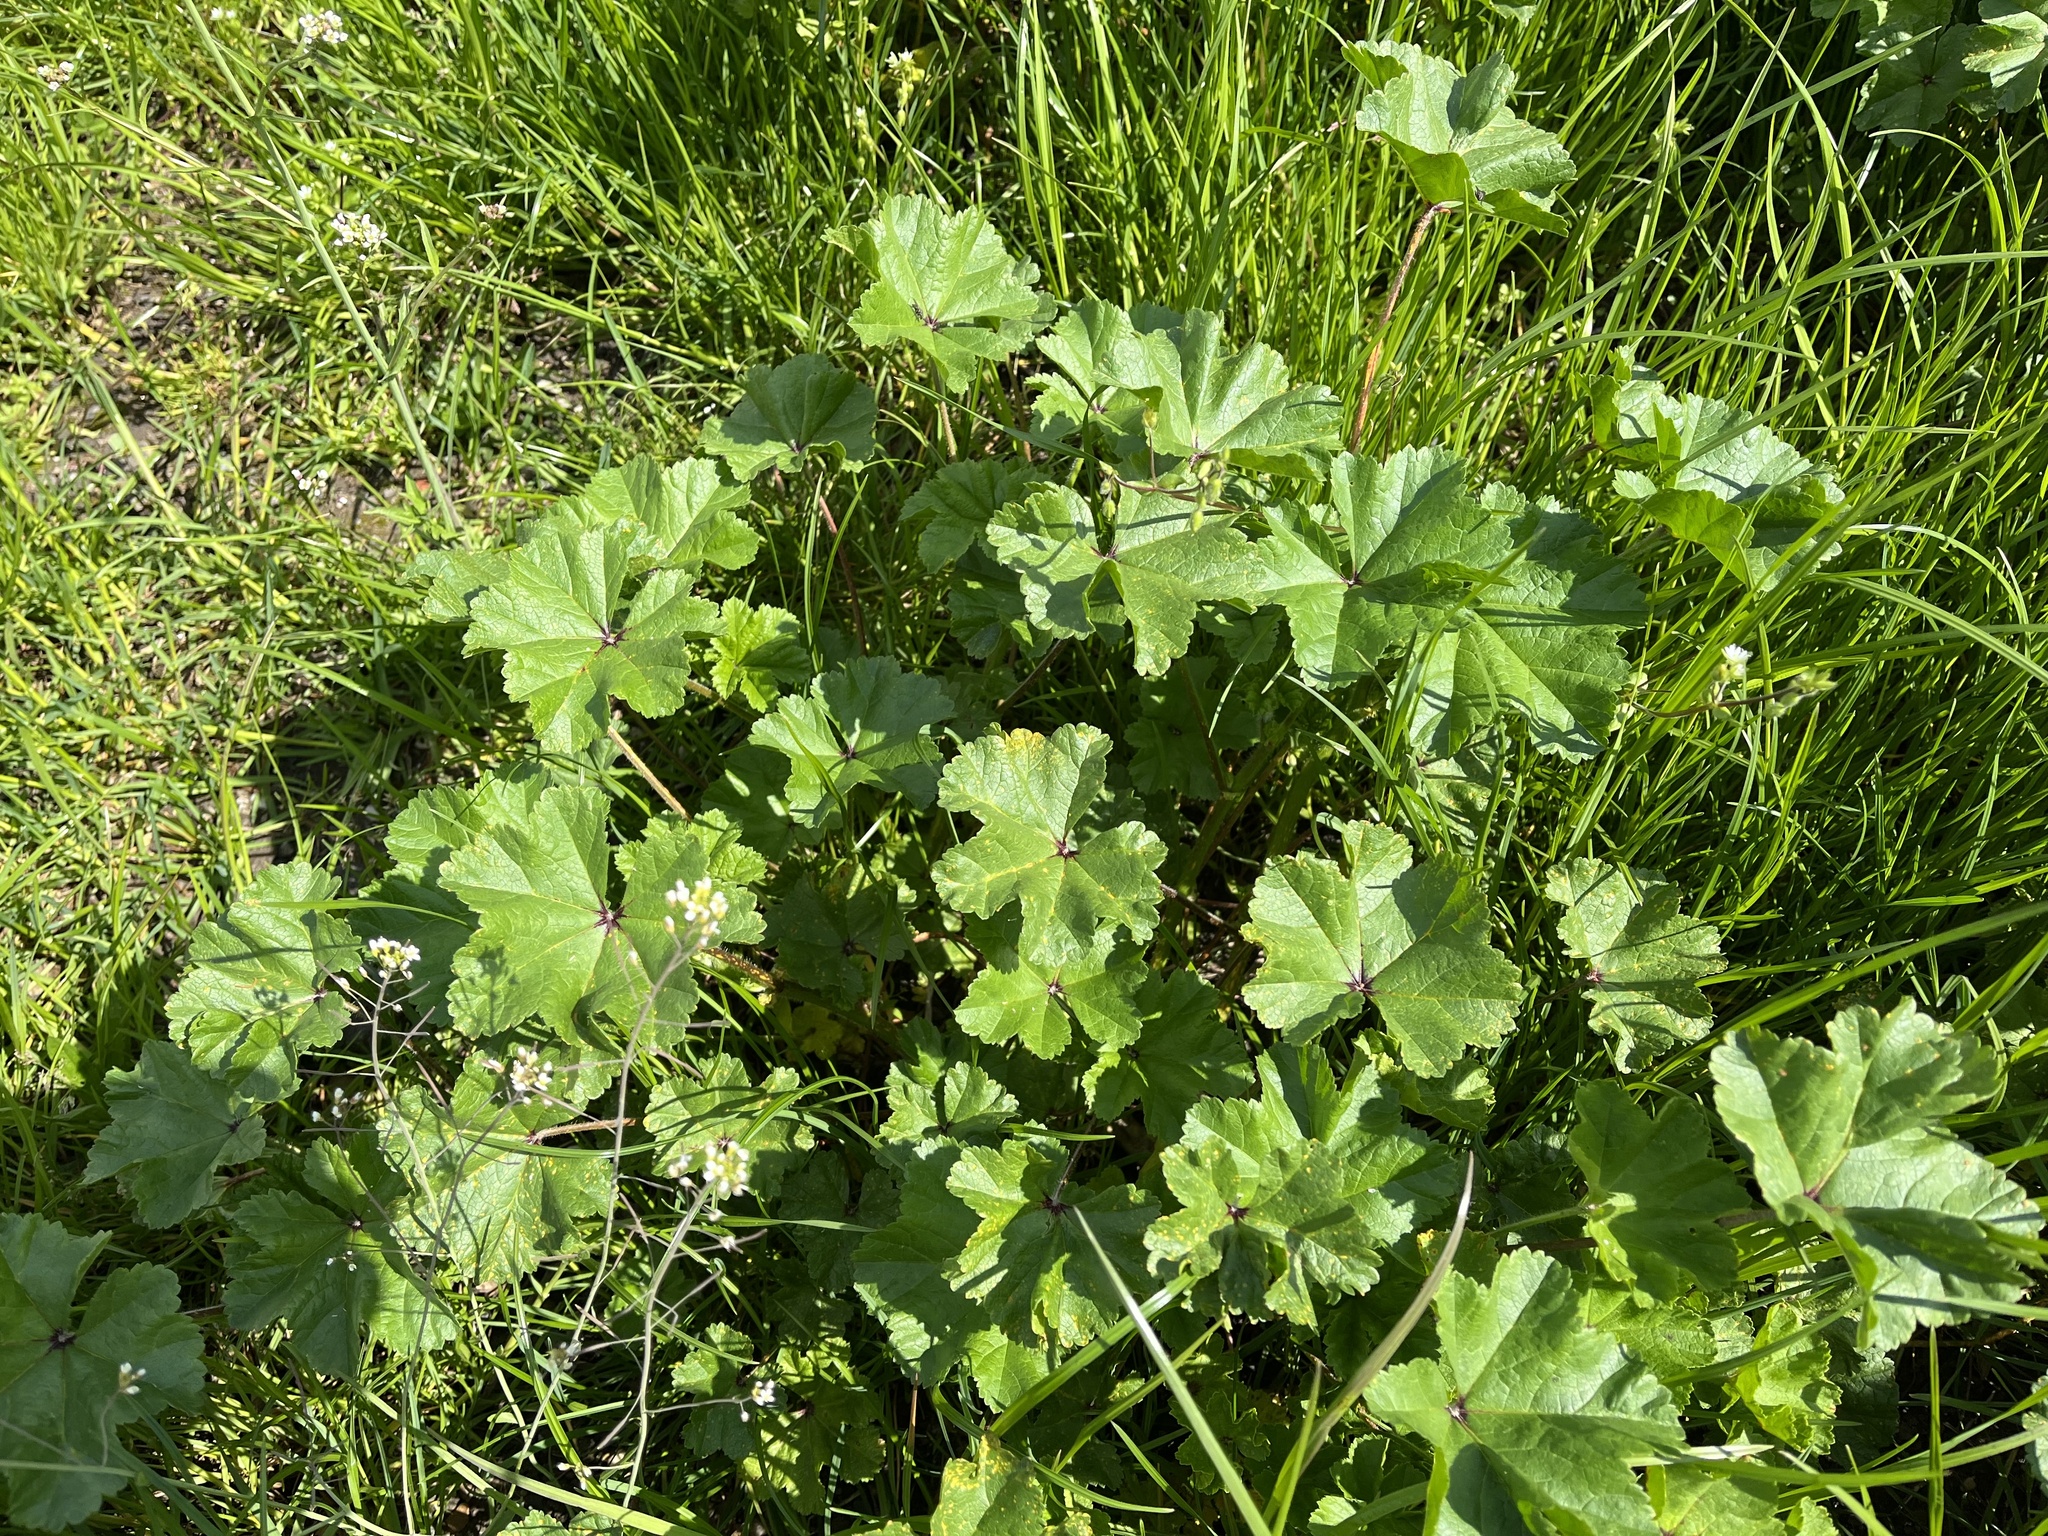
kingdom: Plantae
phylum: Tracheophyta
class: Magnoliopsida
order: Malvales
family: Malvaceae
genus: Malva
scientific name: Malva sylvestris
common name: Common mallow
